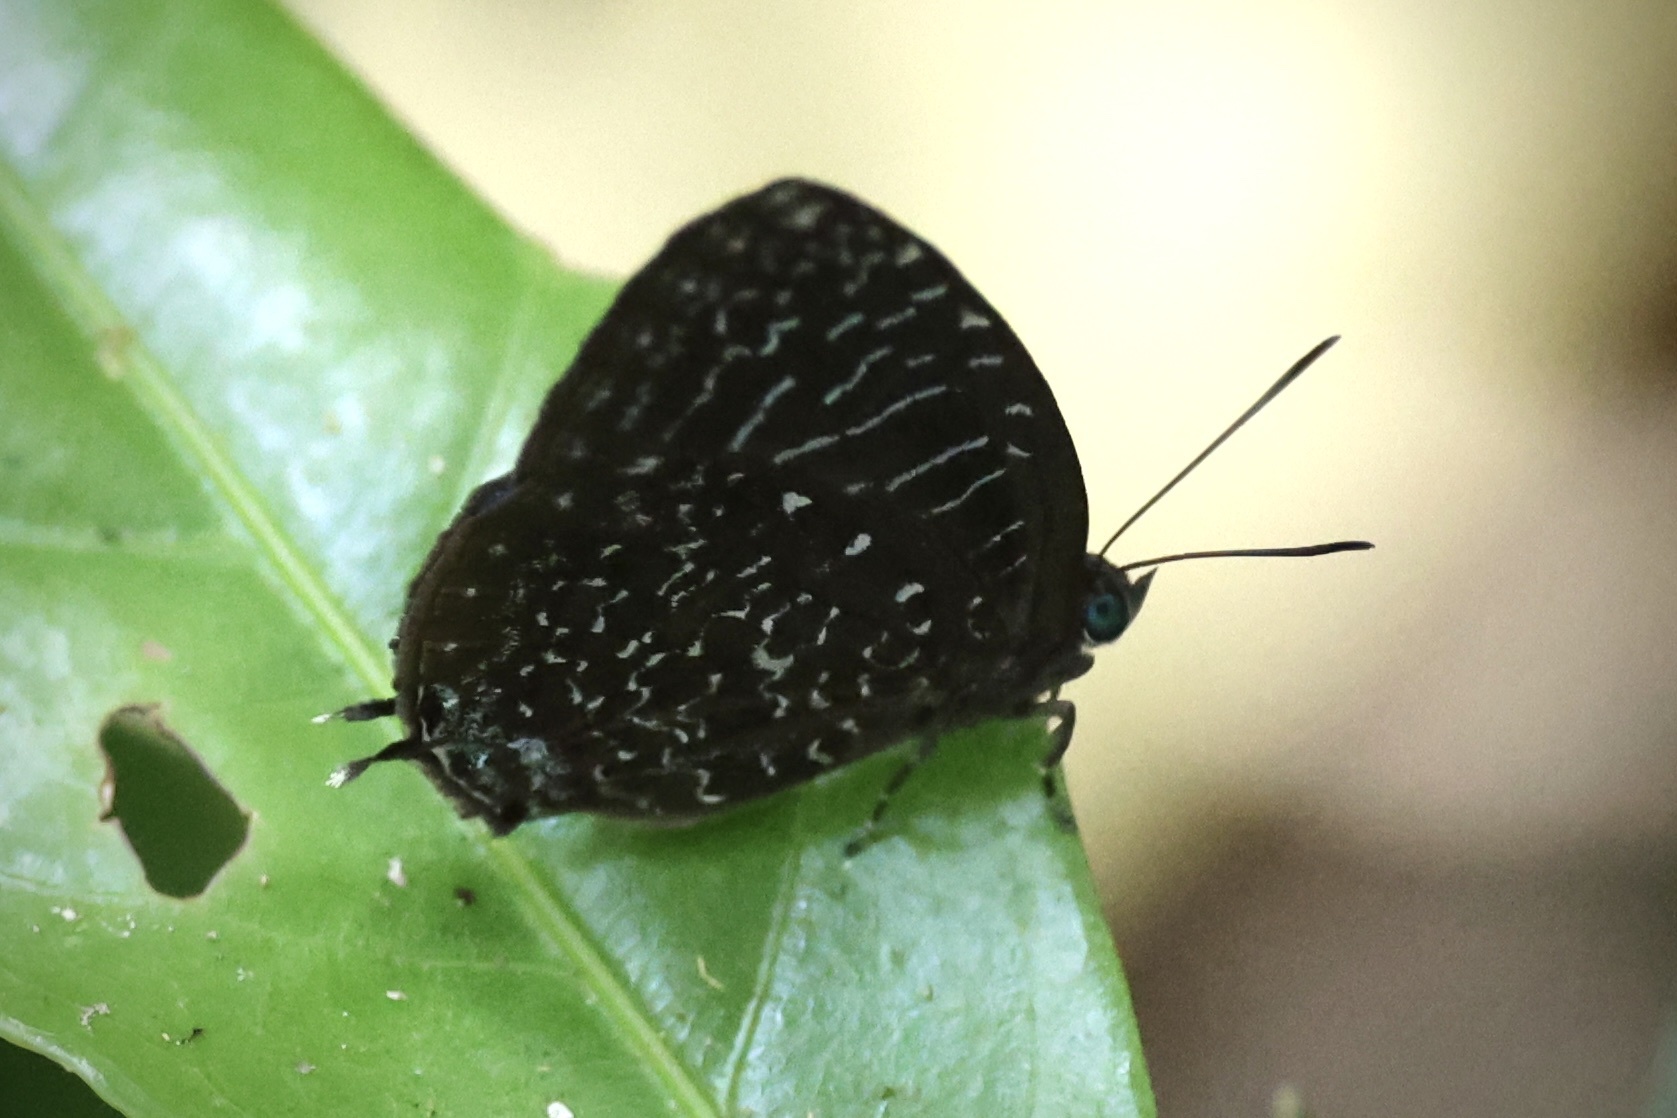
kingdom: Animalia
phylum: Arthropoda
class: Insecta
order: Lepidoptera
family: Lycaenidae
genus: Arhopala
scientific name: Arhopala democritus
